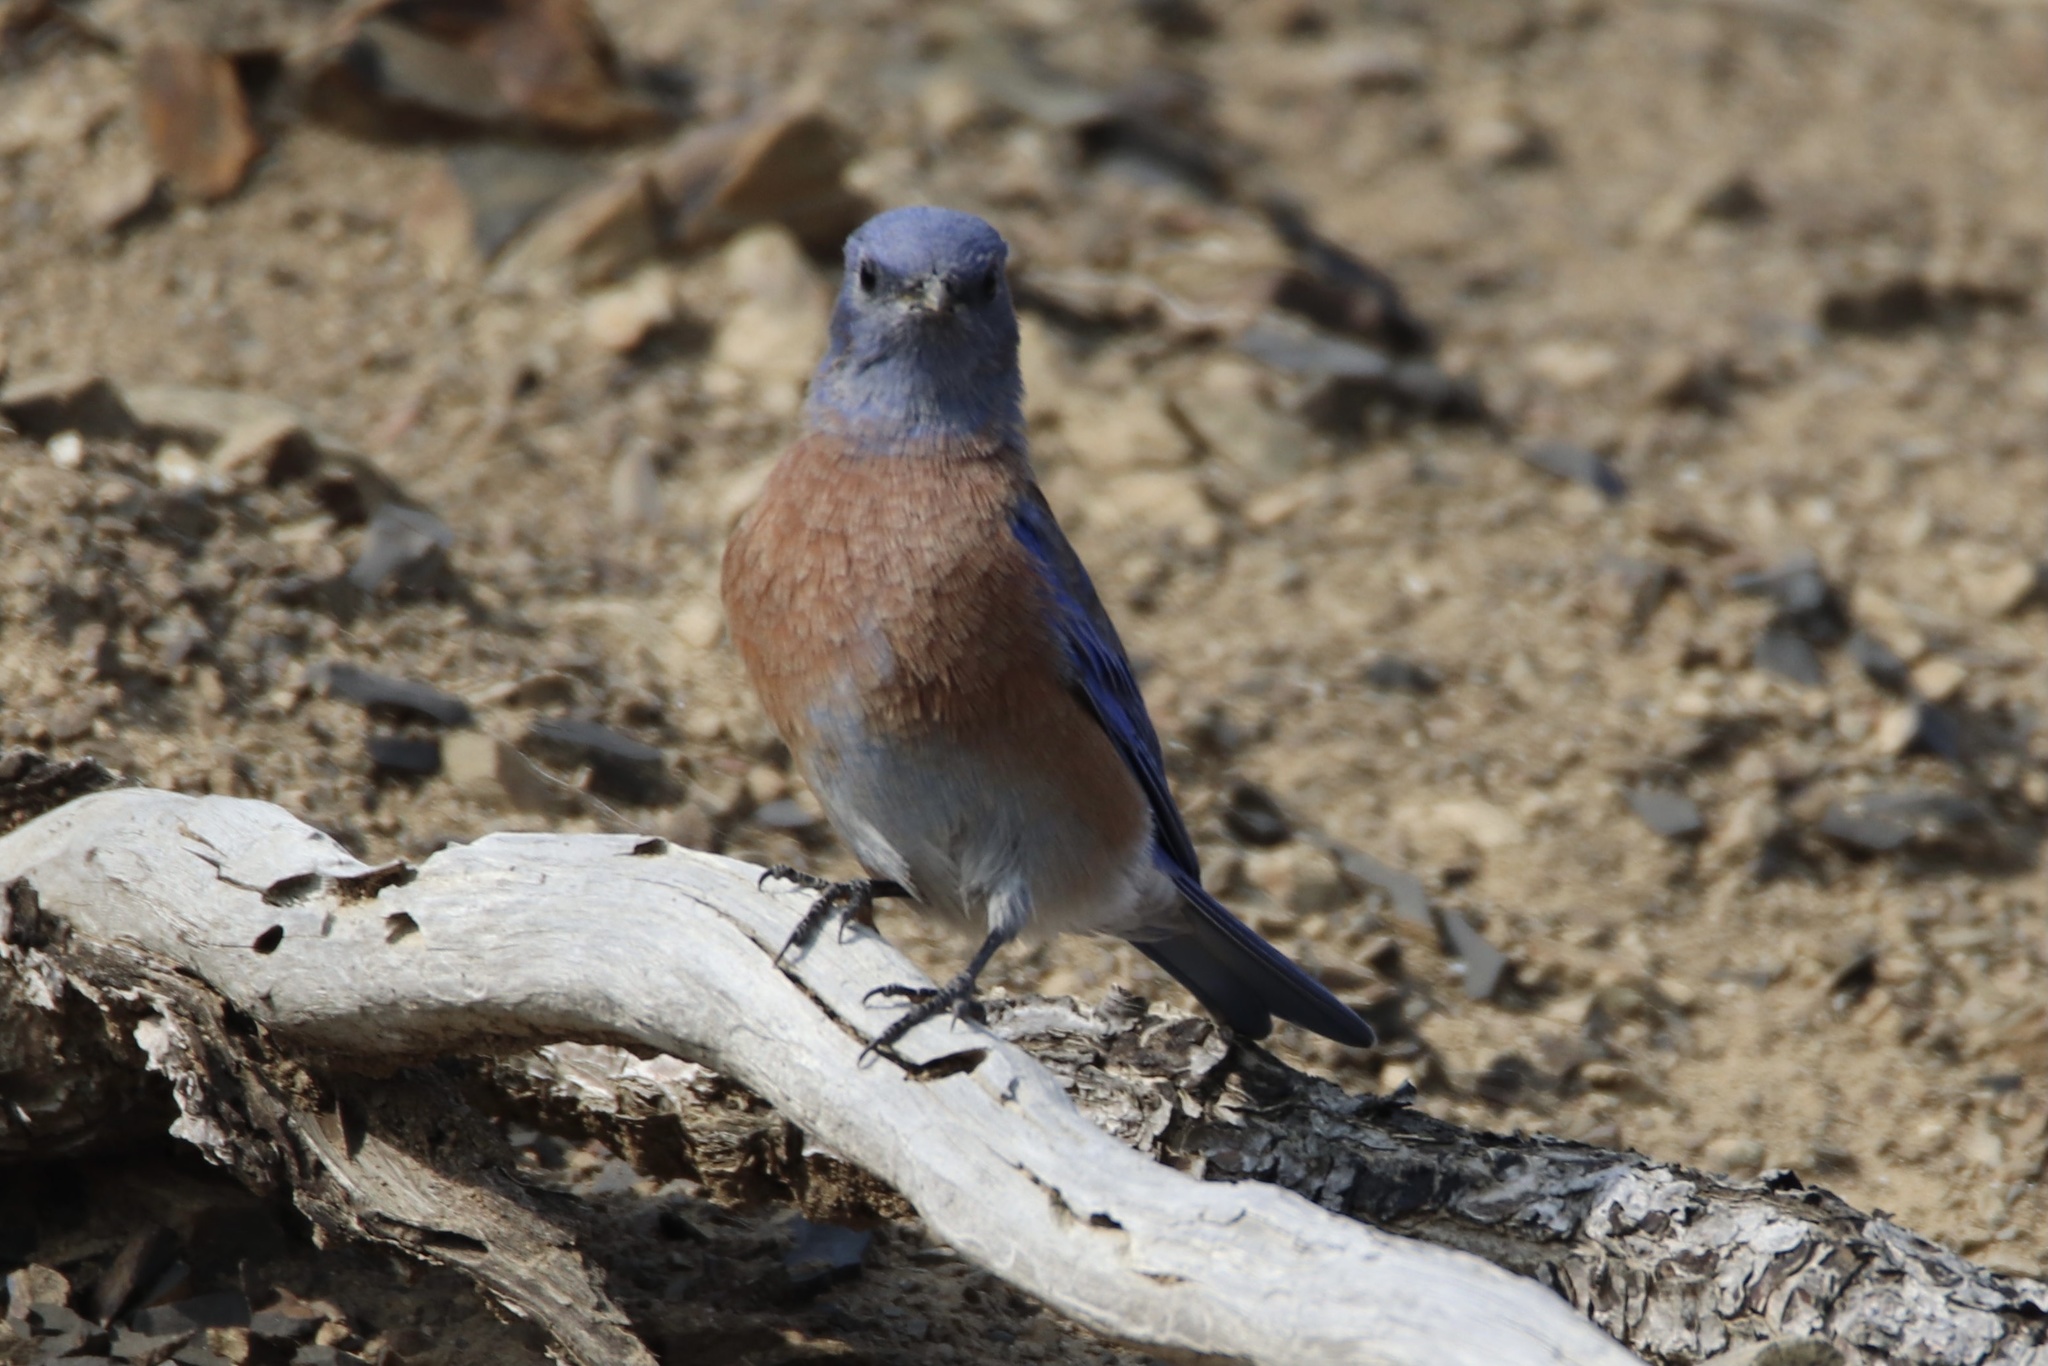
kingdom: Animalia
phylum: Chordata
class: Aves
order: Passeriformes
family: Turdidae
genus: Sialia
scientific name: Sialia mexicana
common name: Western bluebird
